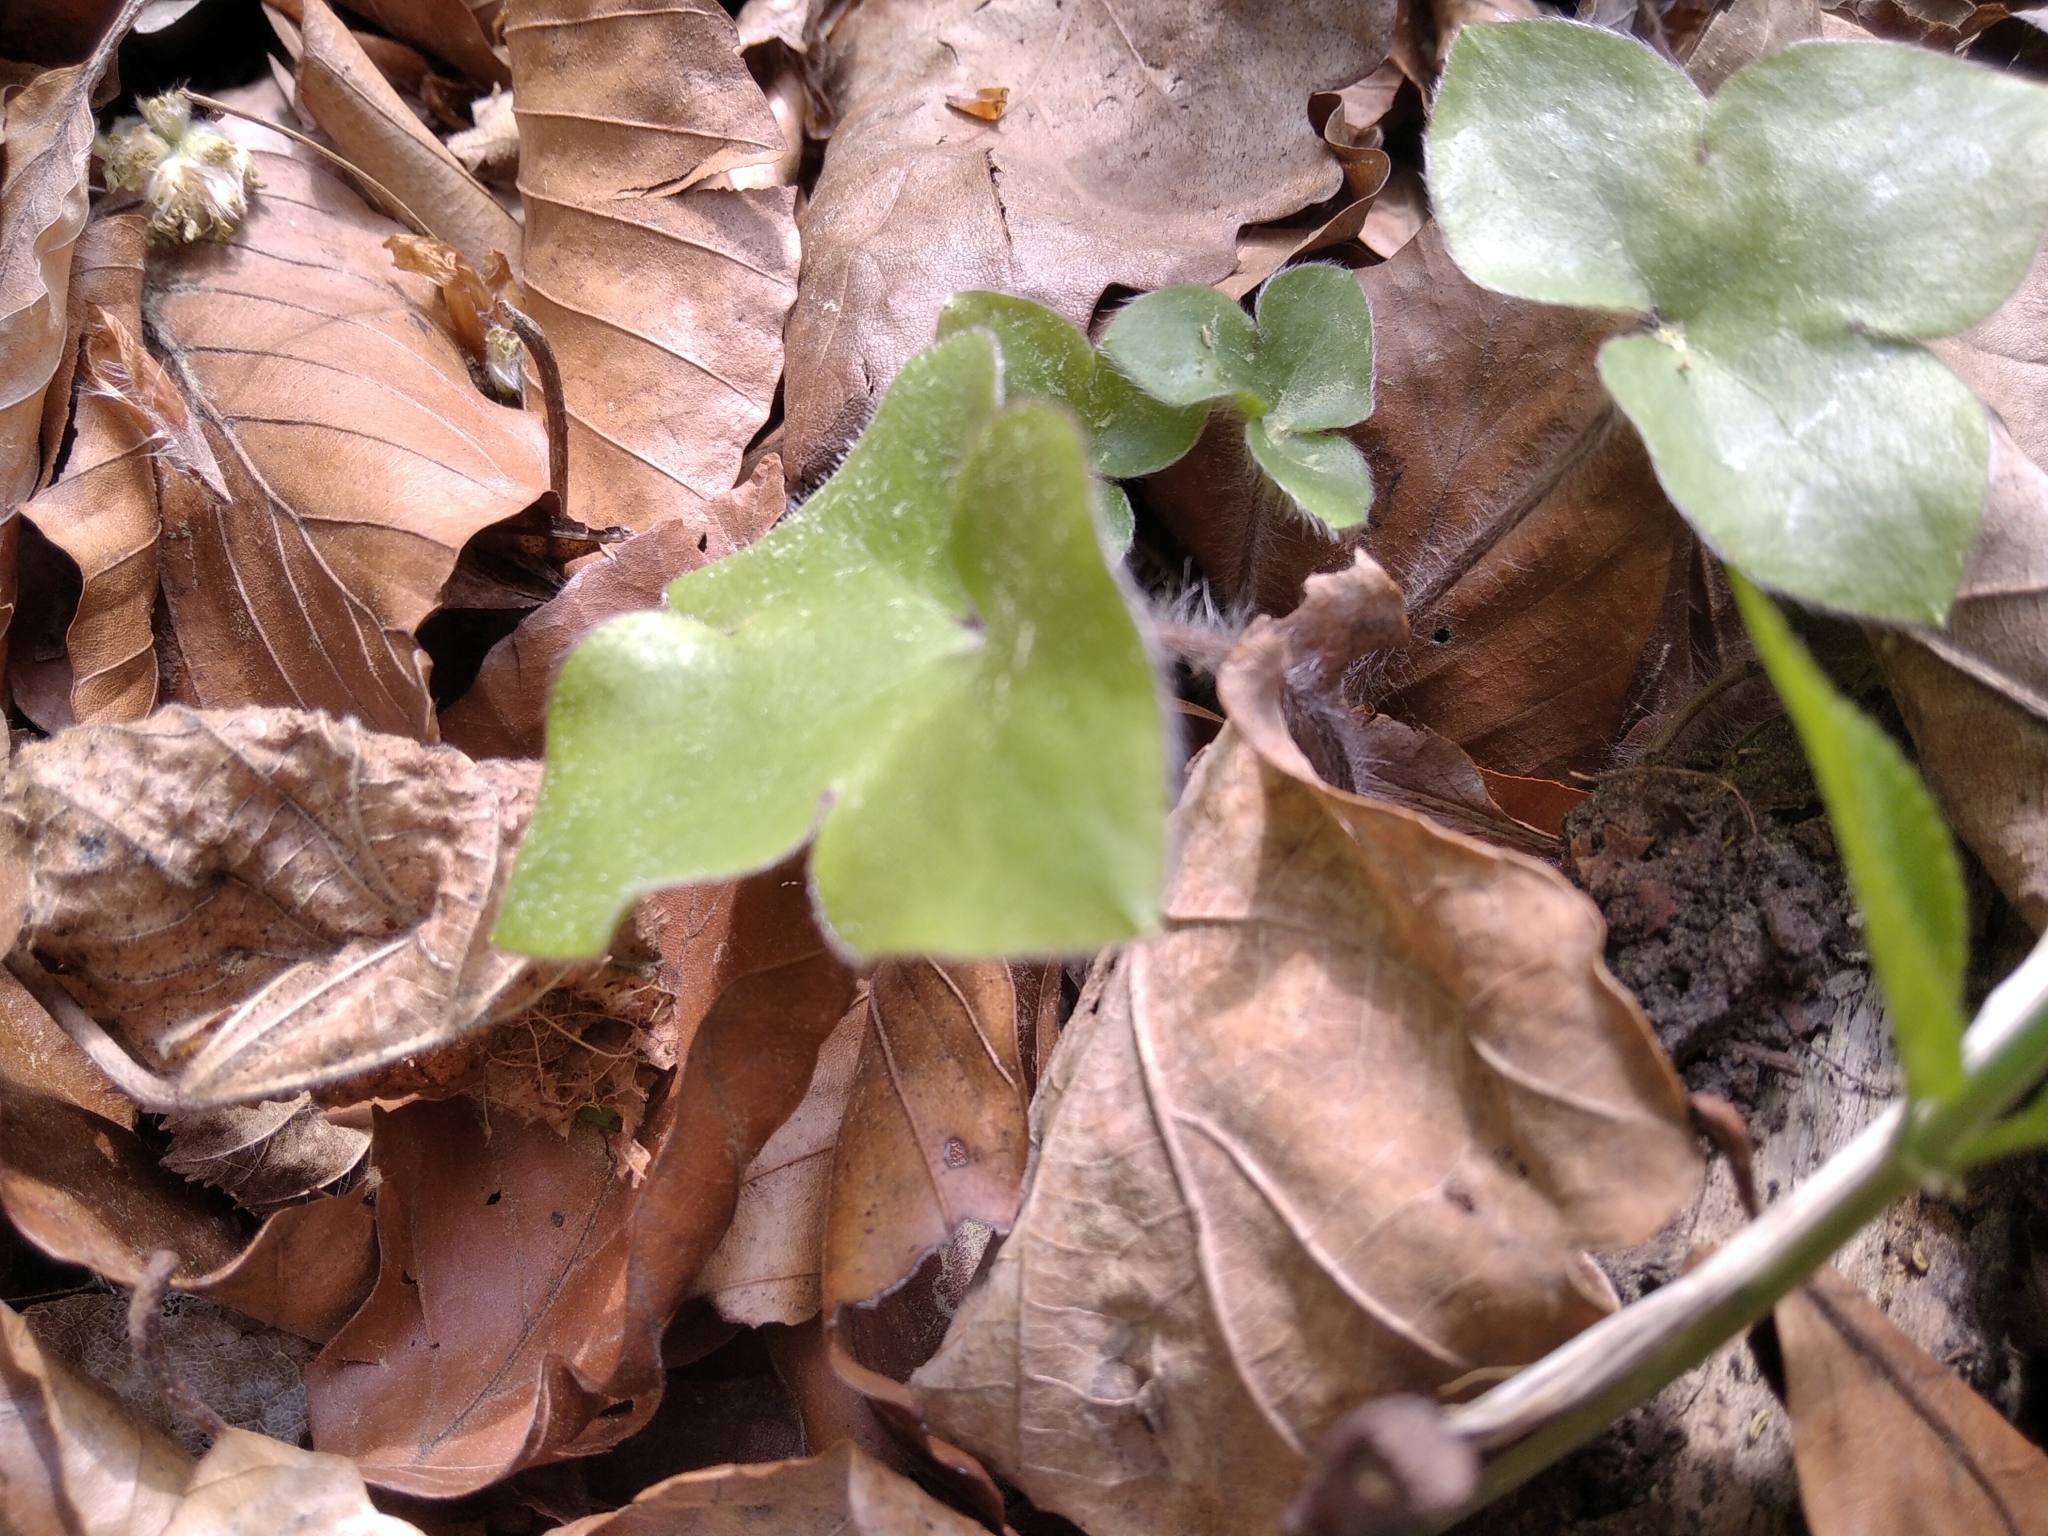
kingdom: Plantae
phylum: Tracheophyta
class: Magnoliopsida
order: Ranunculales
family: Ranunculaceae
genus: Hepatica
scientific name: Hepatica nobilis
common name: Liverleaf
